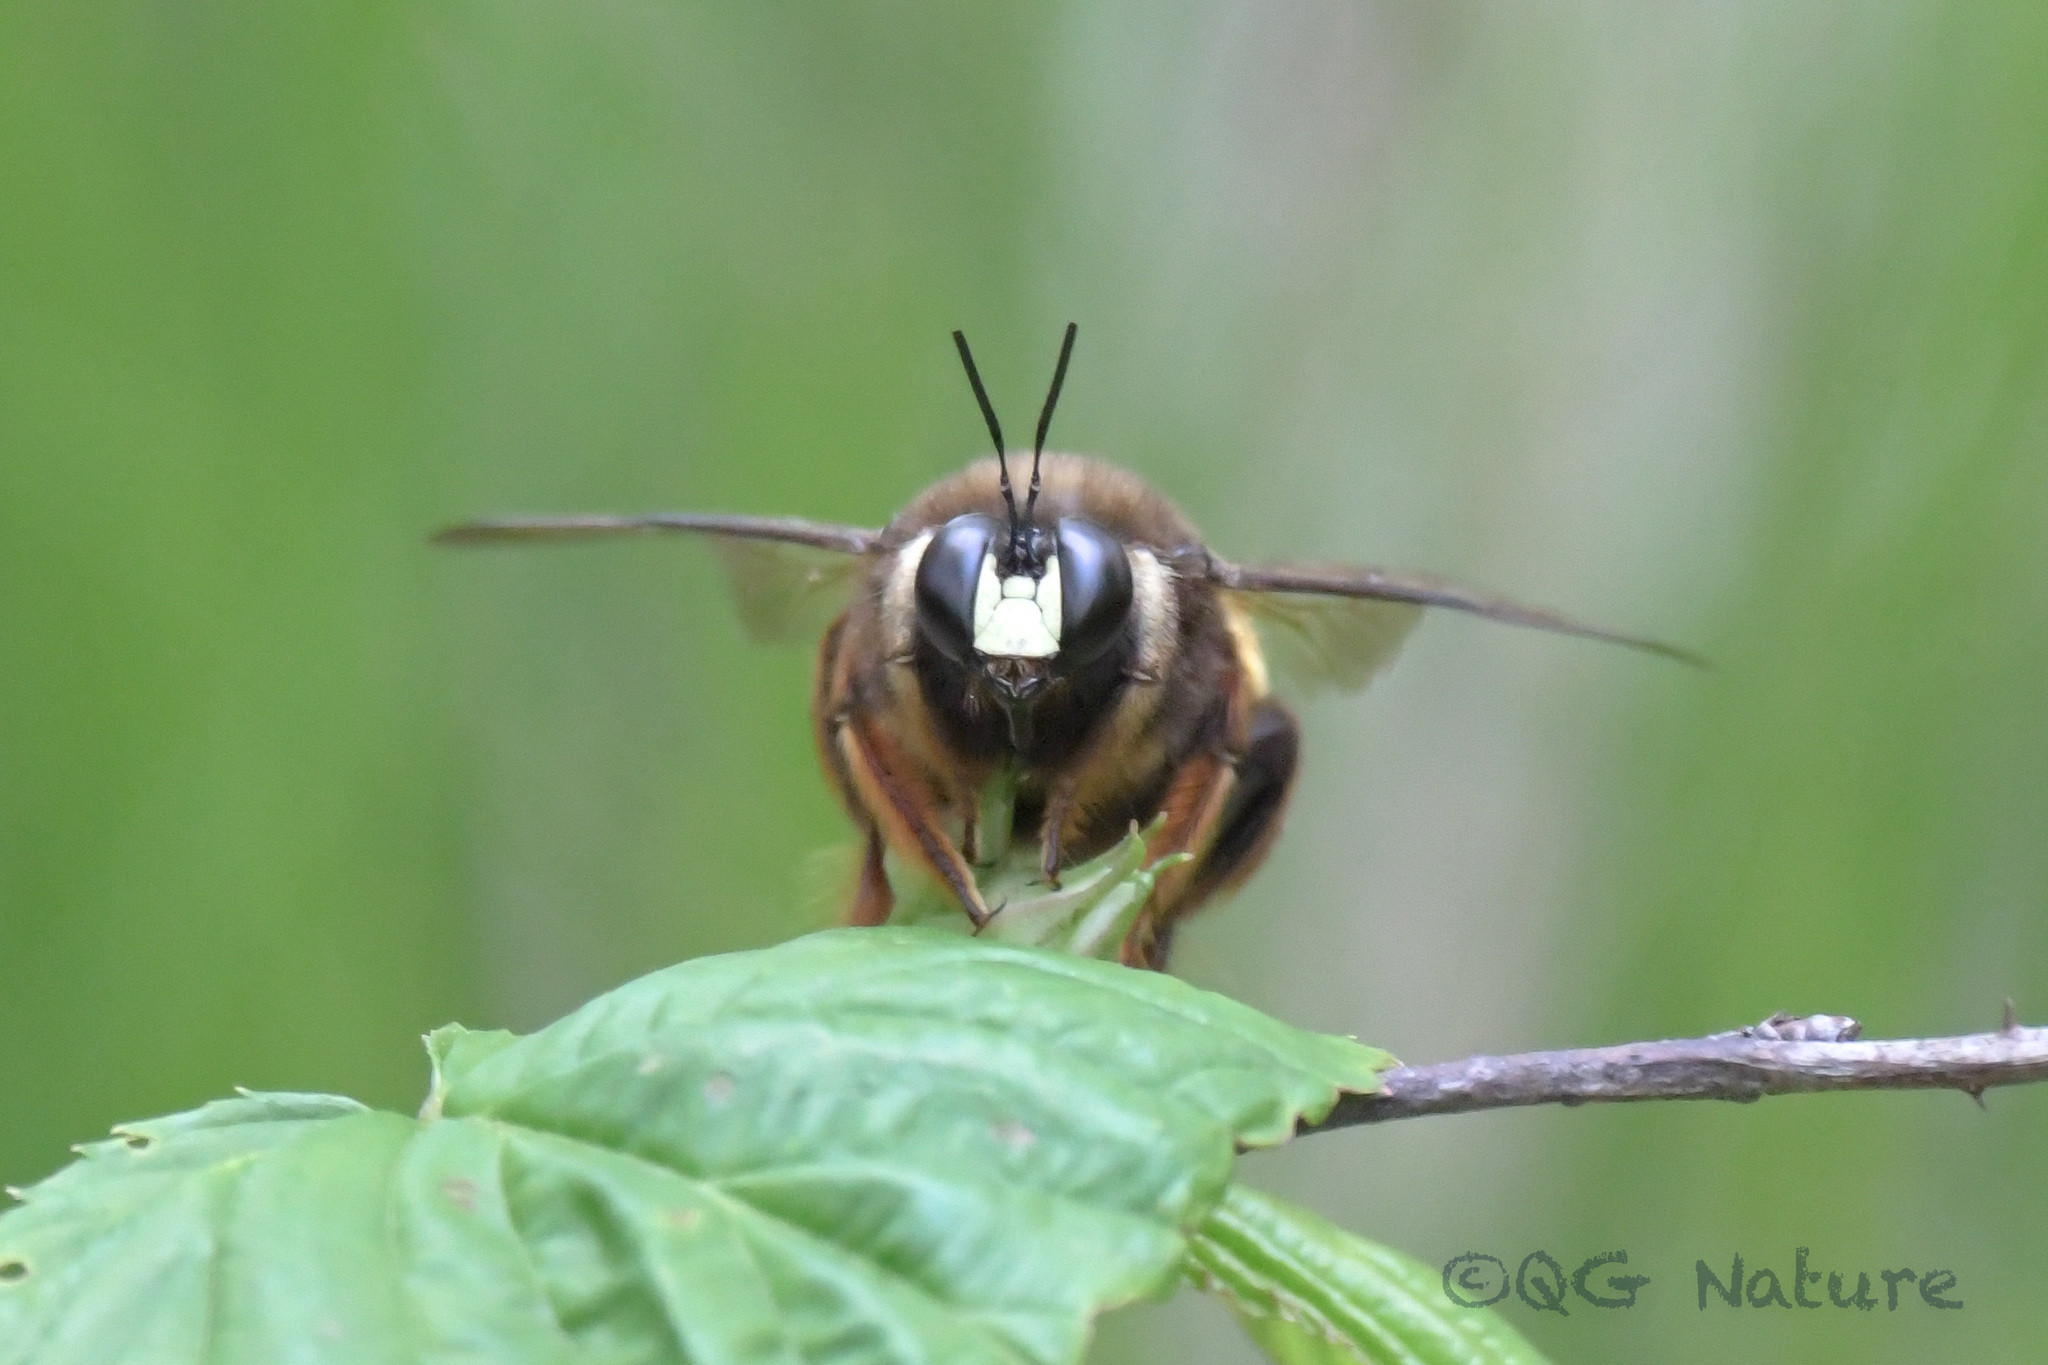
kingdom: Animalia
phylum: Arthropoda
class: Insecta
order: Hymenoptera
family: Apidae
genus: Xylocopa
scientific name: Xylocopa chinensis
